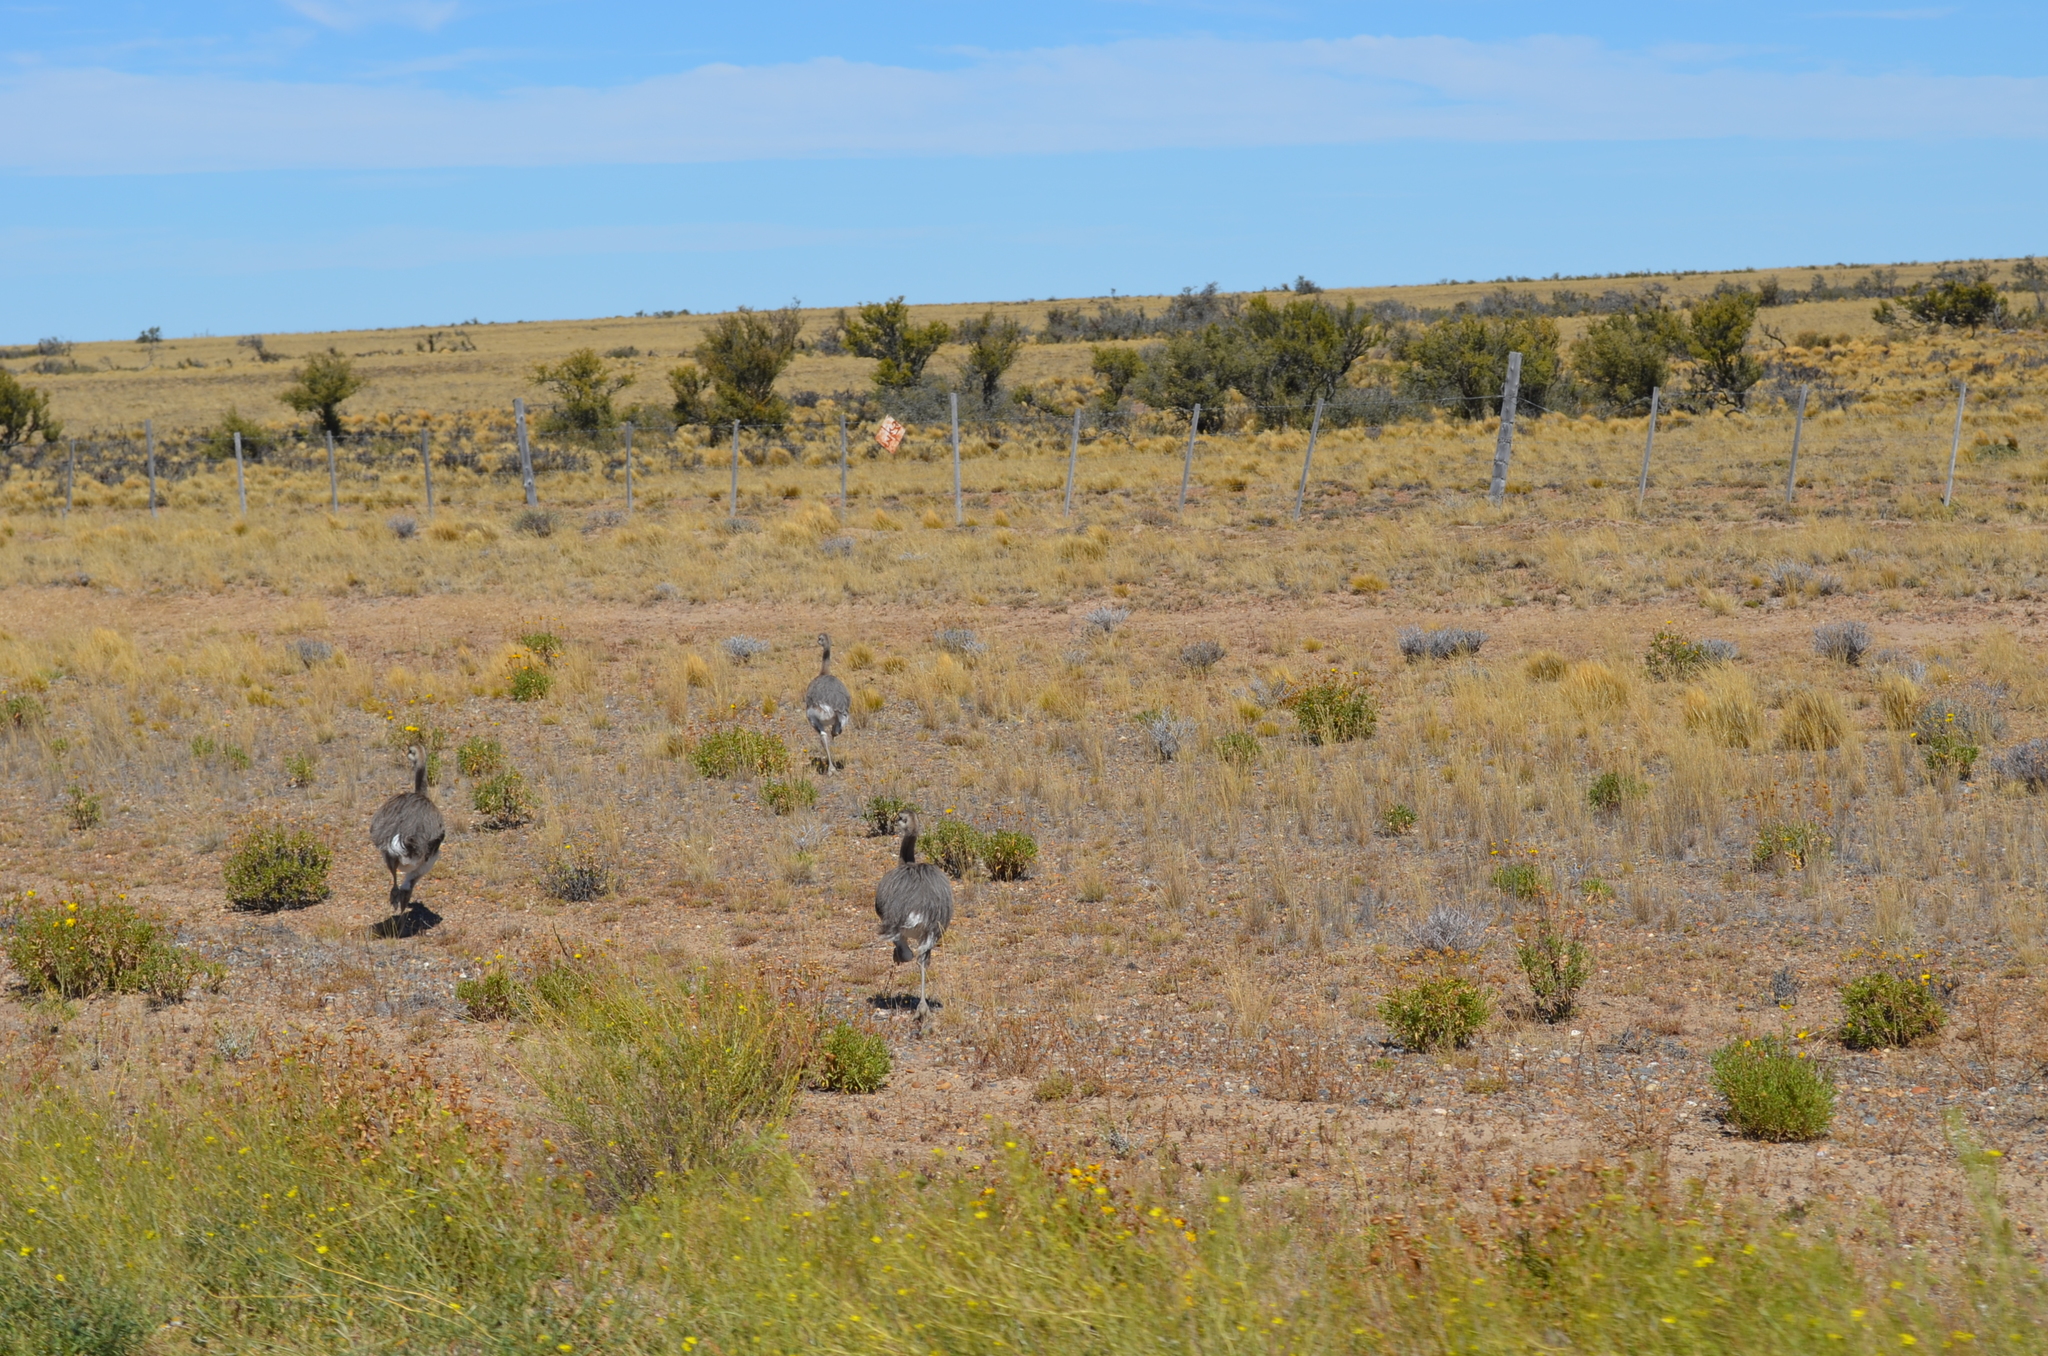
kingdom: Animalia
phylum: Chordata
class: Aves
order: Rheiformes
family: Rheidae
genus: Rhea
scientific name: Rhea pennata
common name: Lesser rhea
